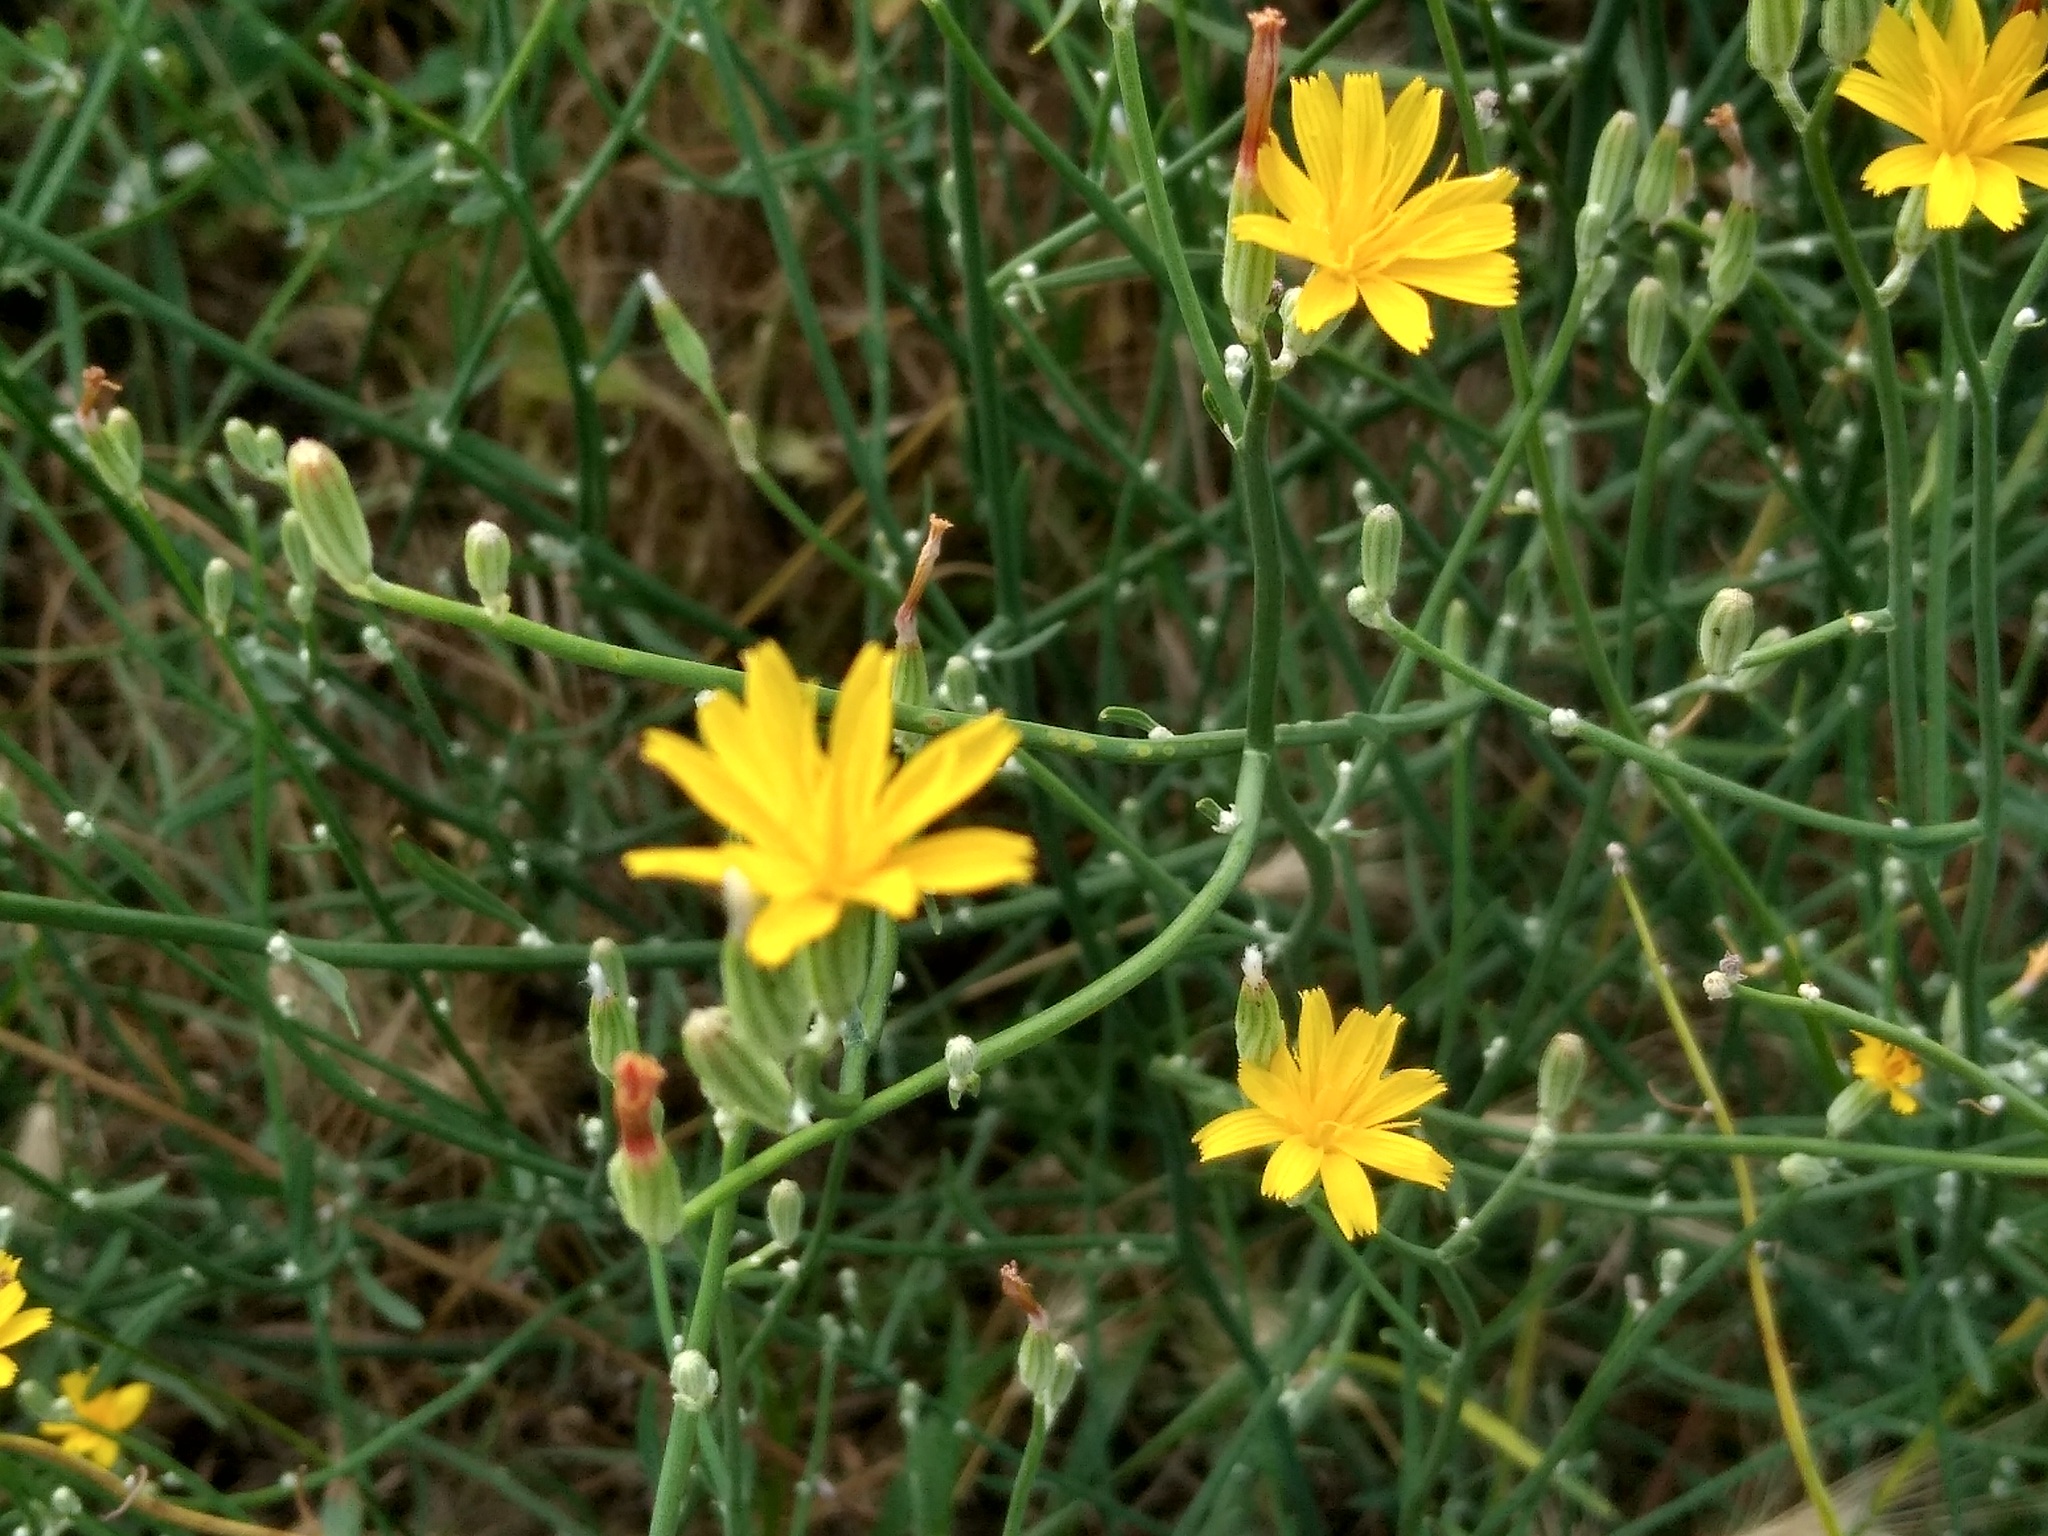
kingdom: Plantae
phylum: Tracheophyta
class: Magnoliopsida
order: Asterales
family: Asteraceae
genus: Chondrilla
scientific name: Chondrilla juncea
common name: Skeleton weed
